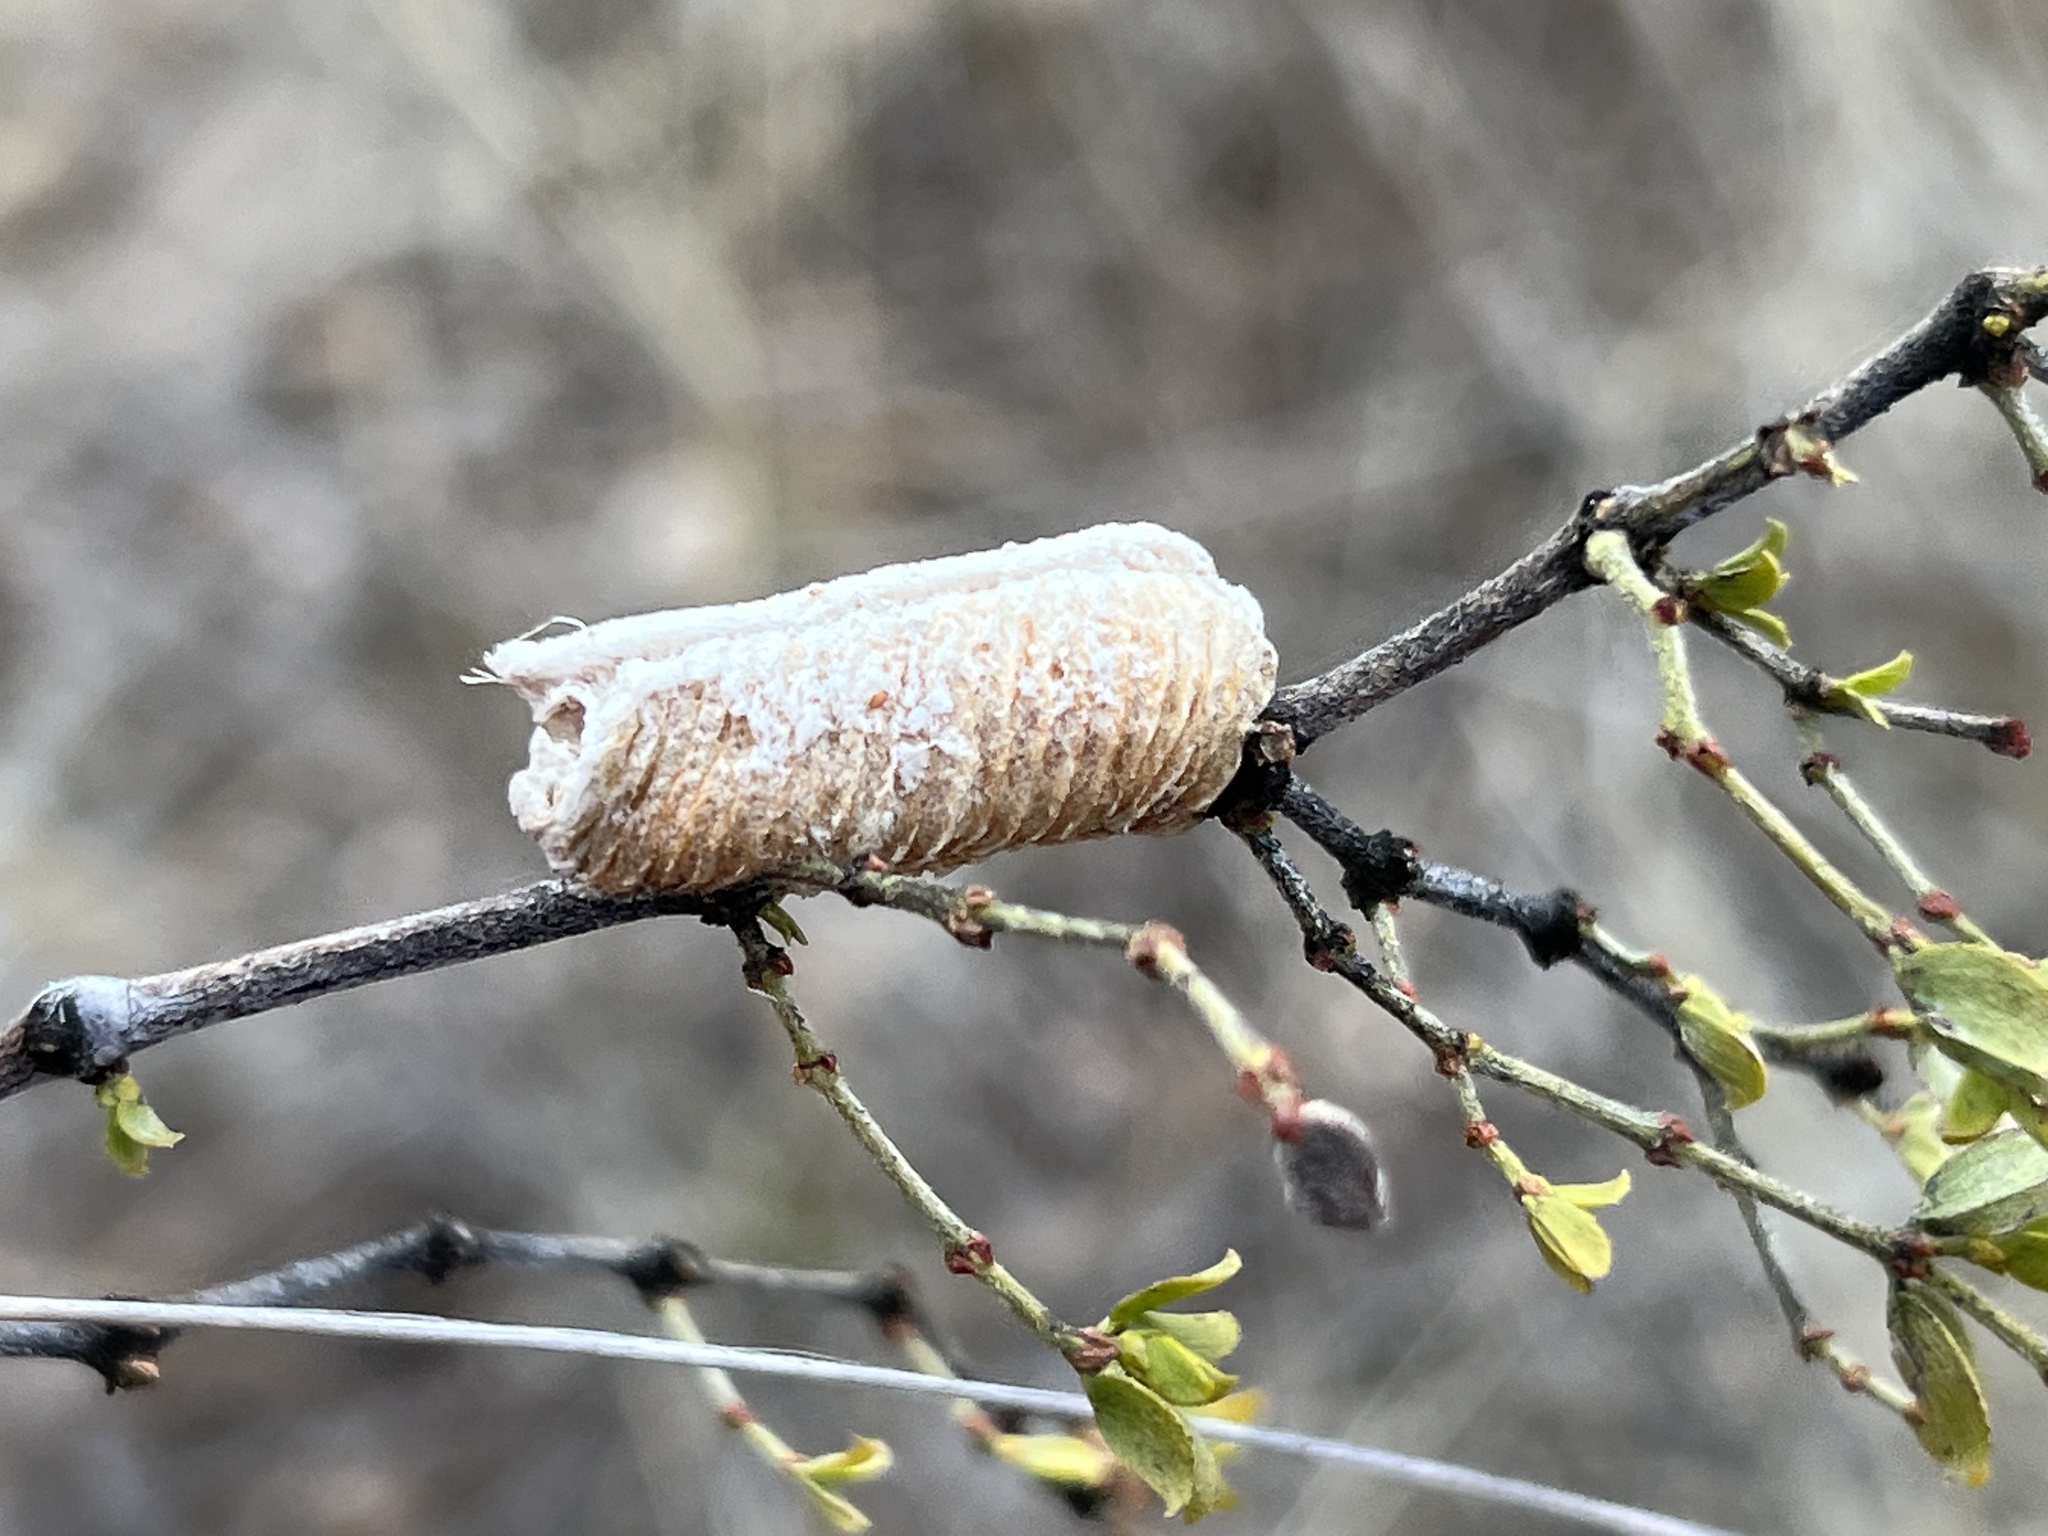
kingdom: Animalia
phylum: Arthropoda
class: Insecta
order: Mantodea
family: Mantidae
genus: Stagmomantis
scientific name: Stagmomantis californica
